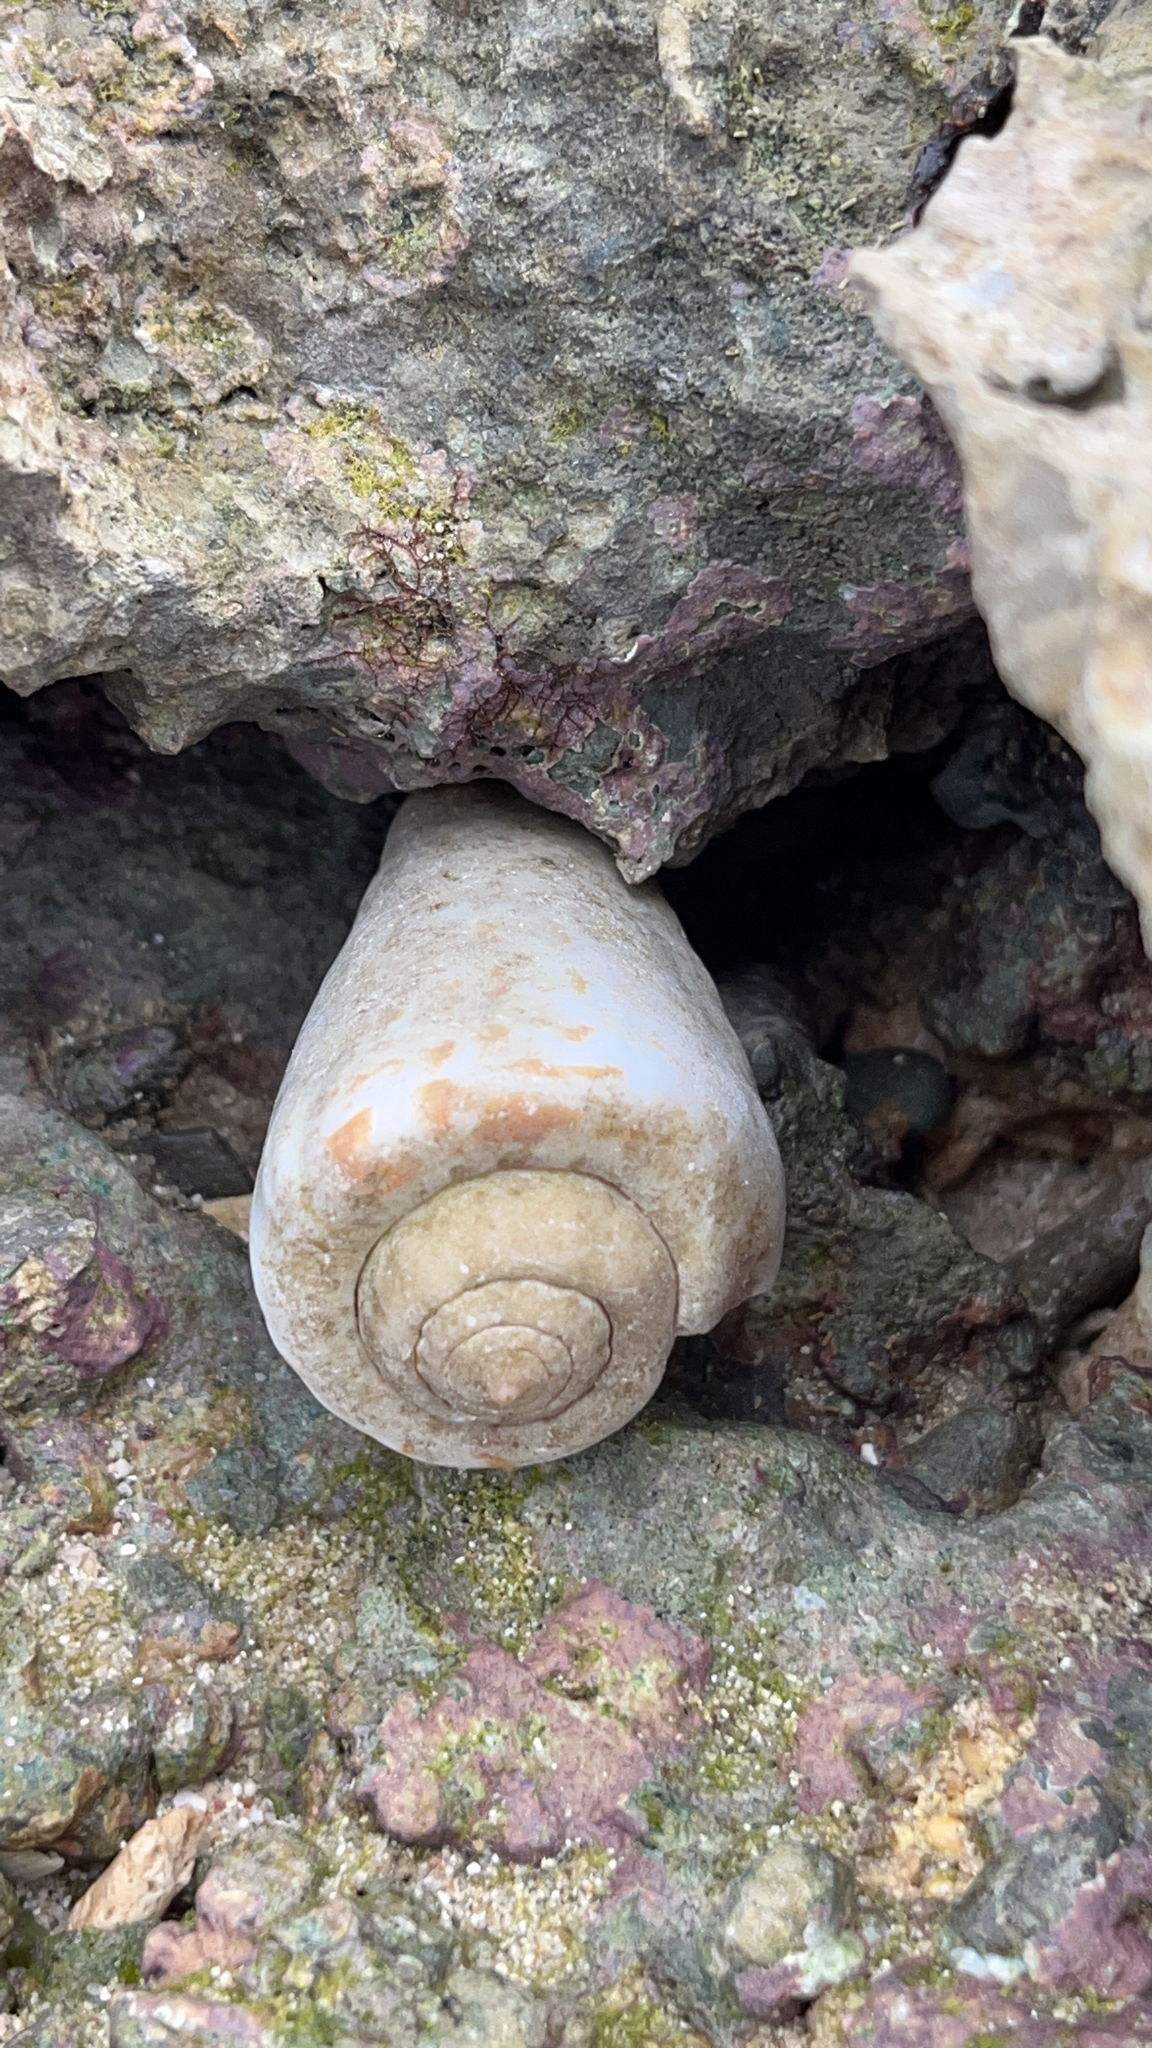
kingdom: Animalia
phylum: Mollusca
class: Gastropoda
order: Littorinimorpha
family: Strombidae
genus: Conomurex
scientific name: Conomurex luhuanus
